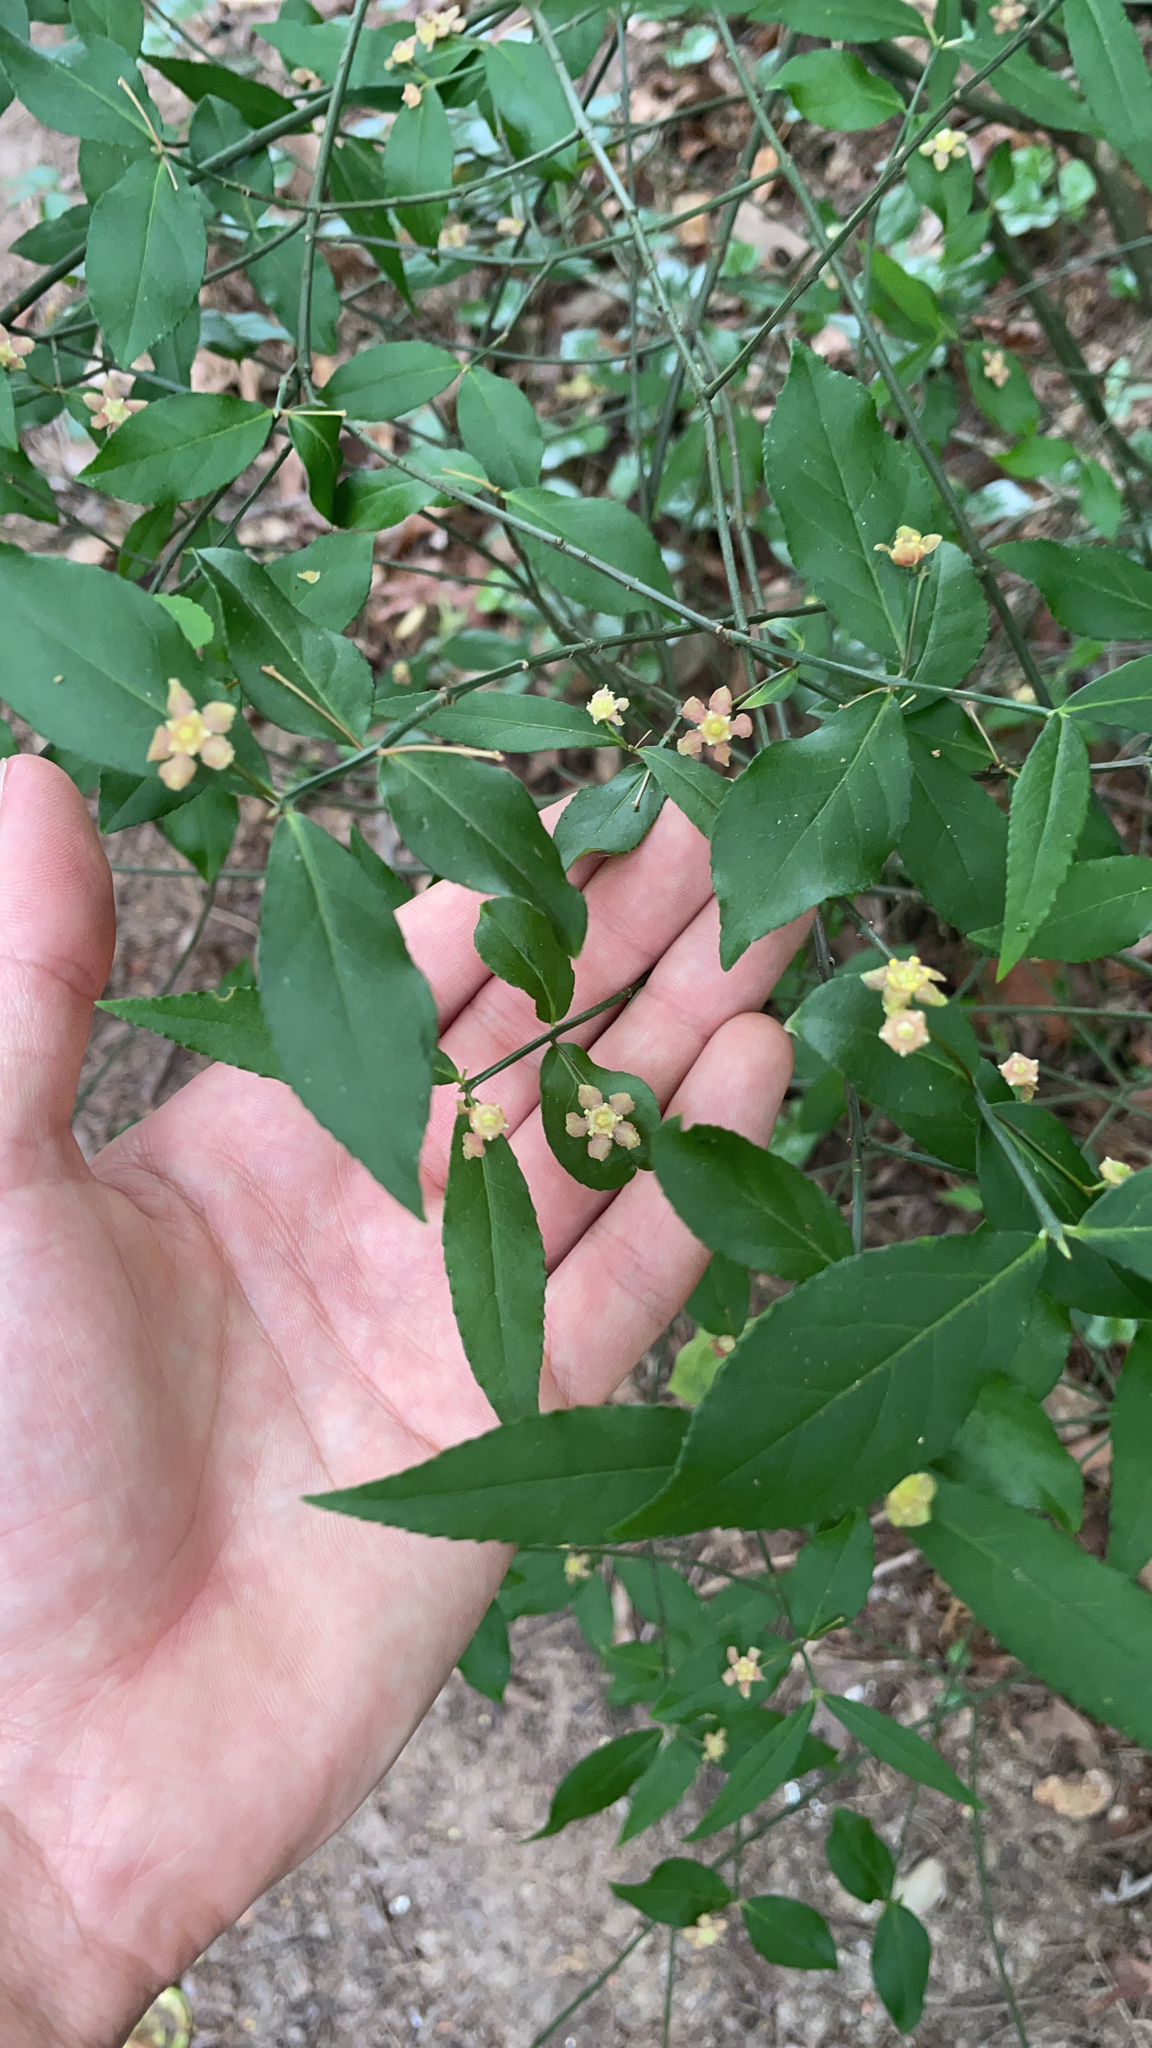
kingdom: Plantae
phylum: Tracheophyta
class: Magnoliopsida
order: Celastrales
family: Celastraceae
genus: Euonymus
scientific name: Euonymus americanus
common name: Bursting-heart
